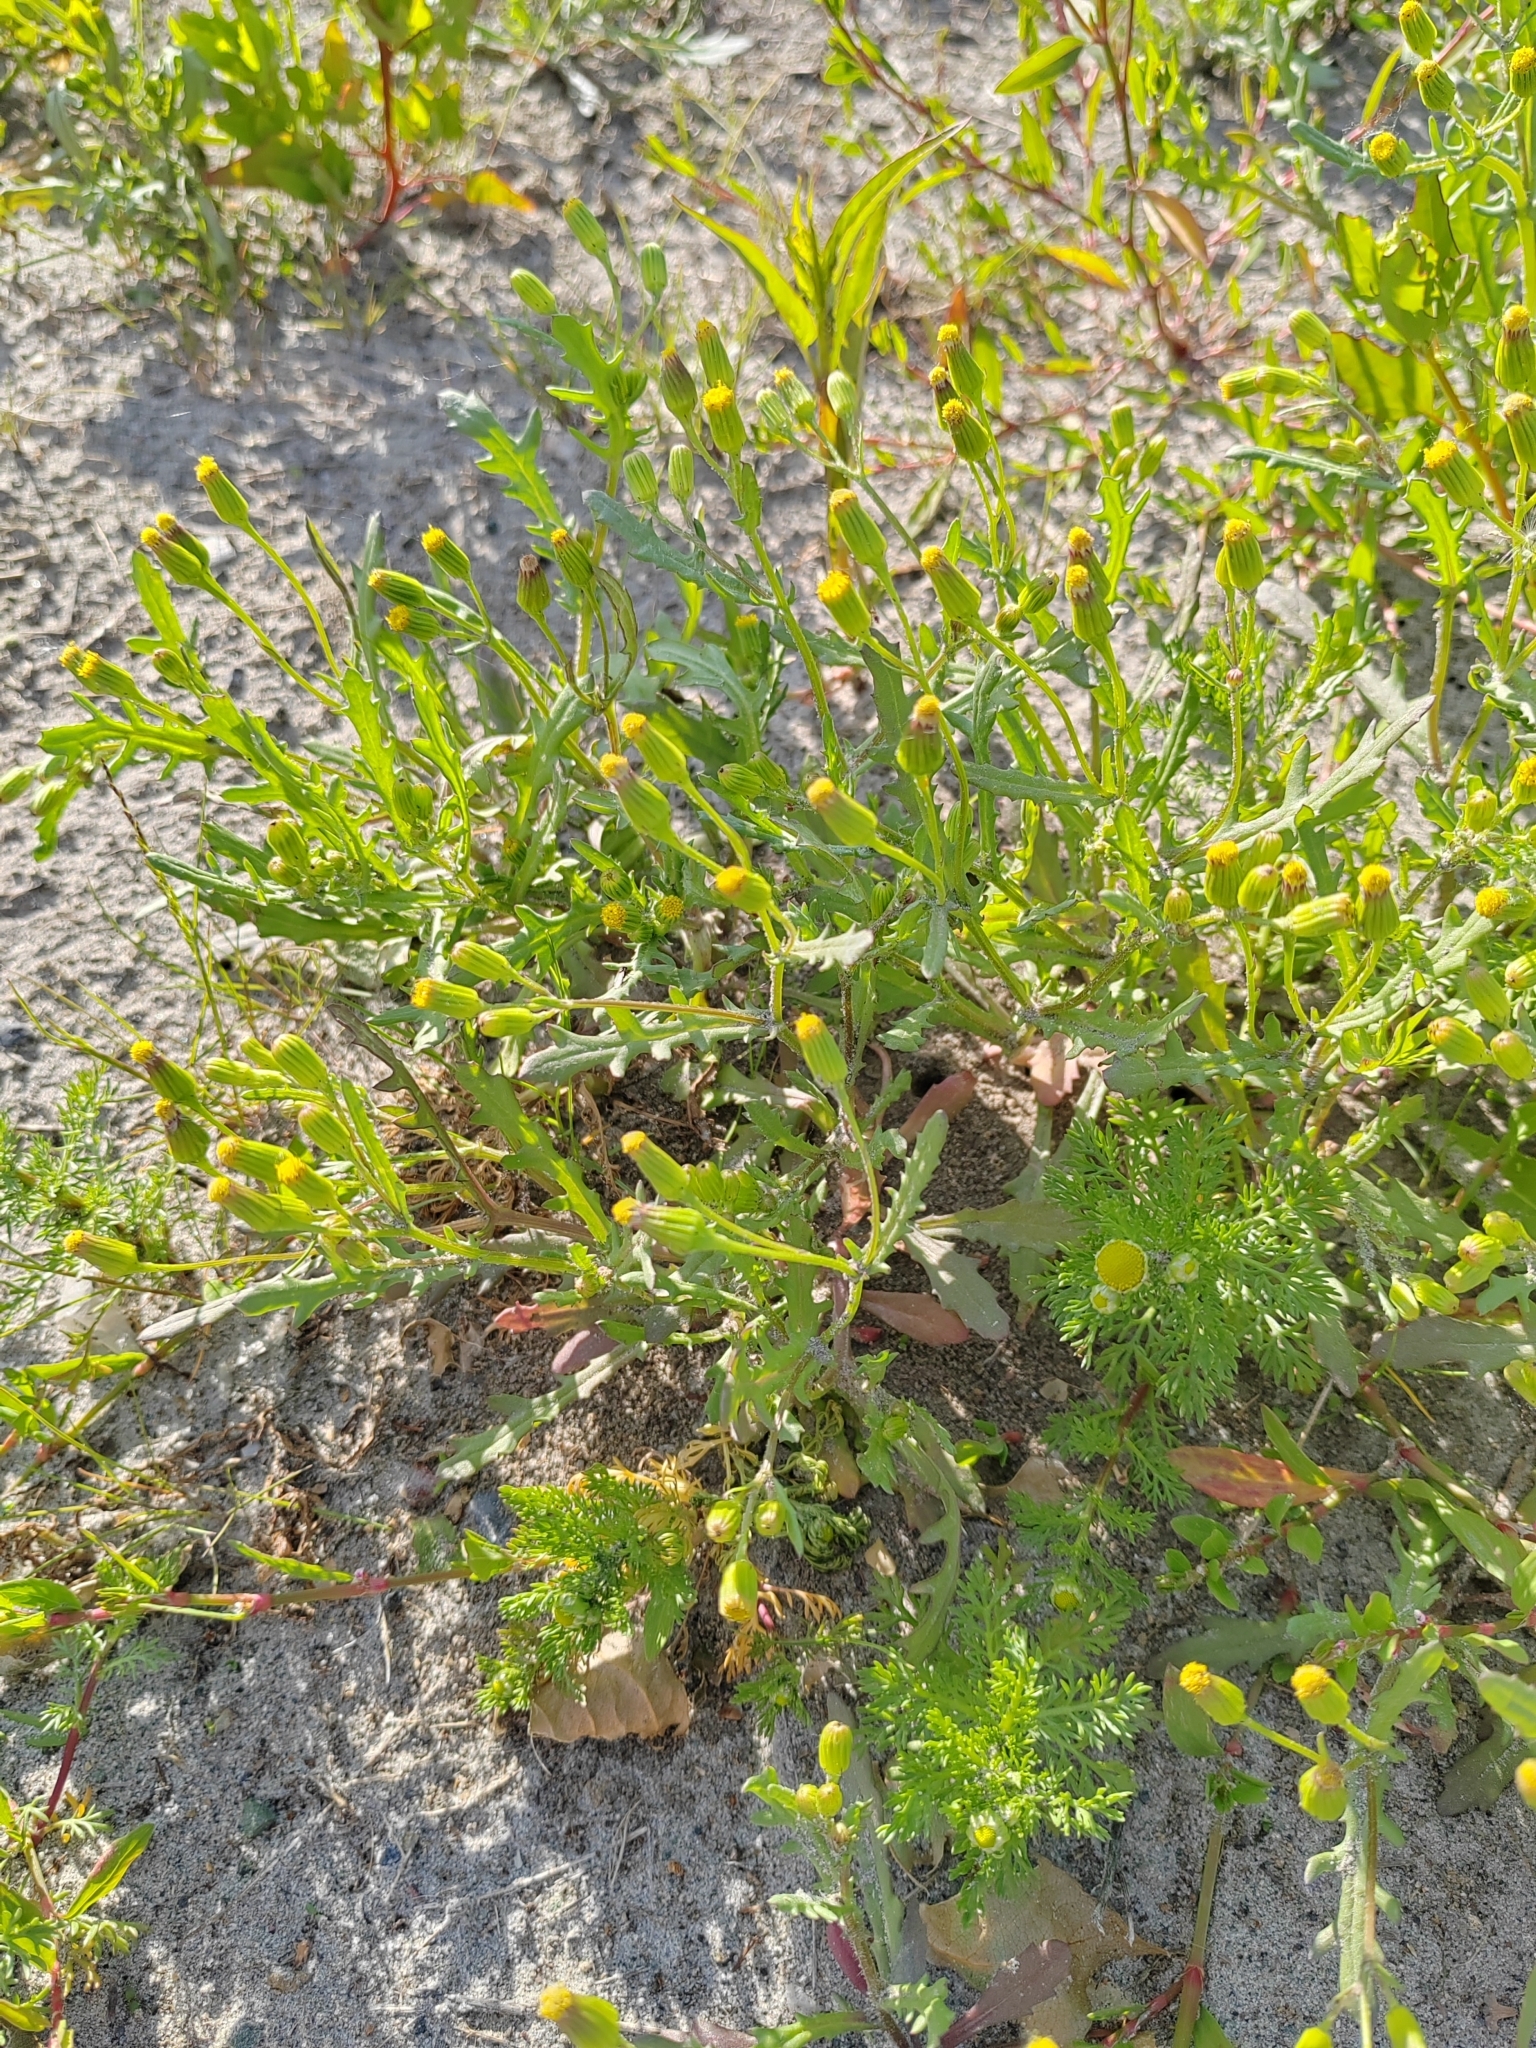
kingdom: Plantae
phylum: Tracheophyta
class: Magnoliopsida
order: Asterales
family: Asteraceae
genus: Senecio
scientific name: Senecio dubitabilis
